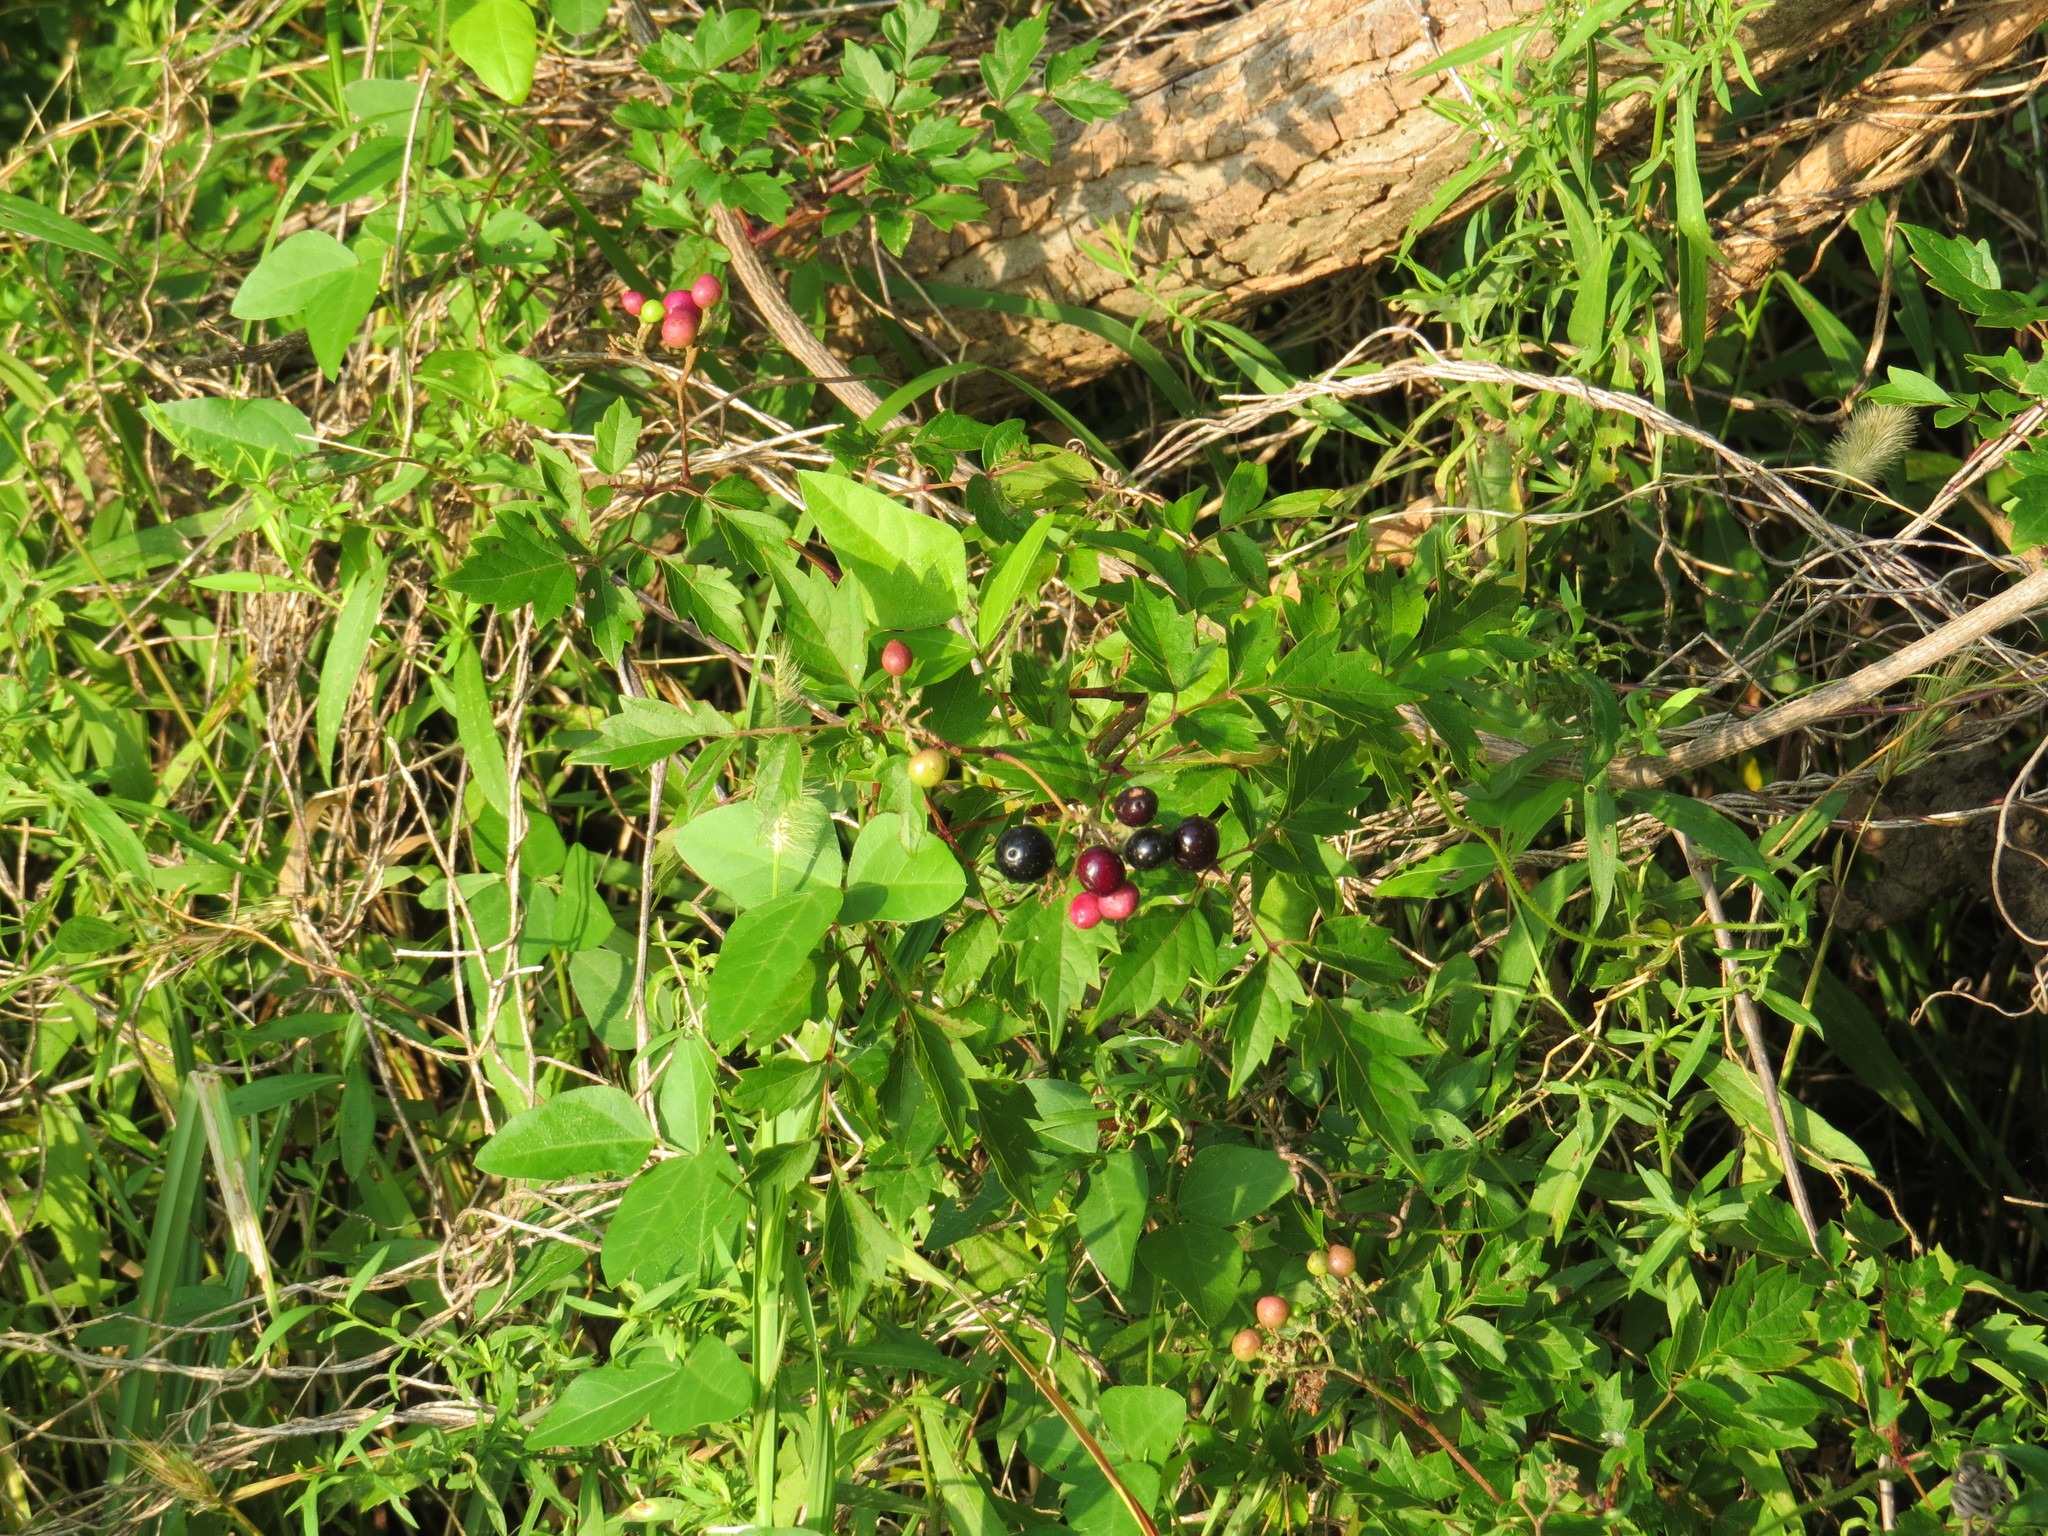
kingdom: Plantae
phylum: Tracheophyta
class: Magnoliopsida
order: Vitales
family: Vitaceae
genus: Nekemias
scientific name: Nekemias arborea
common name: Peppervine
